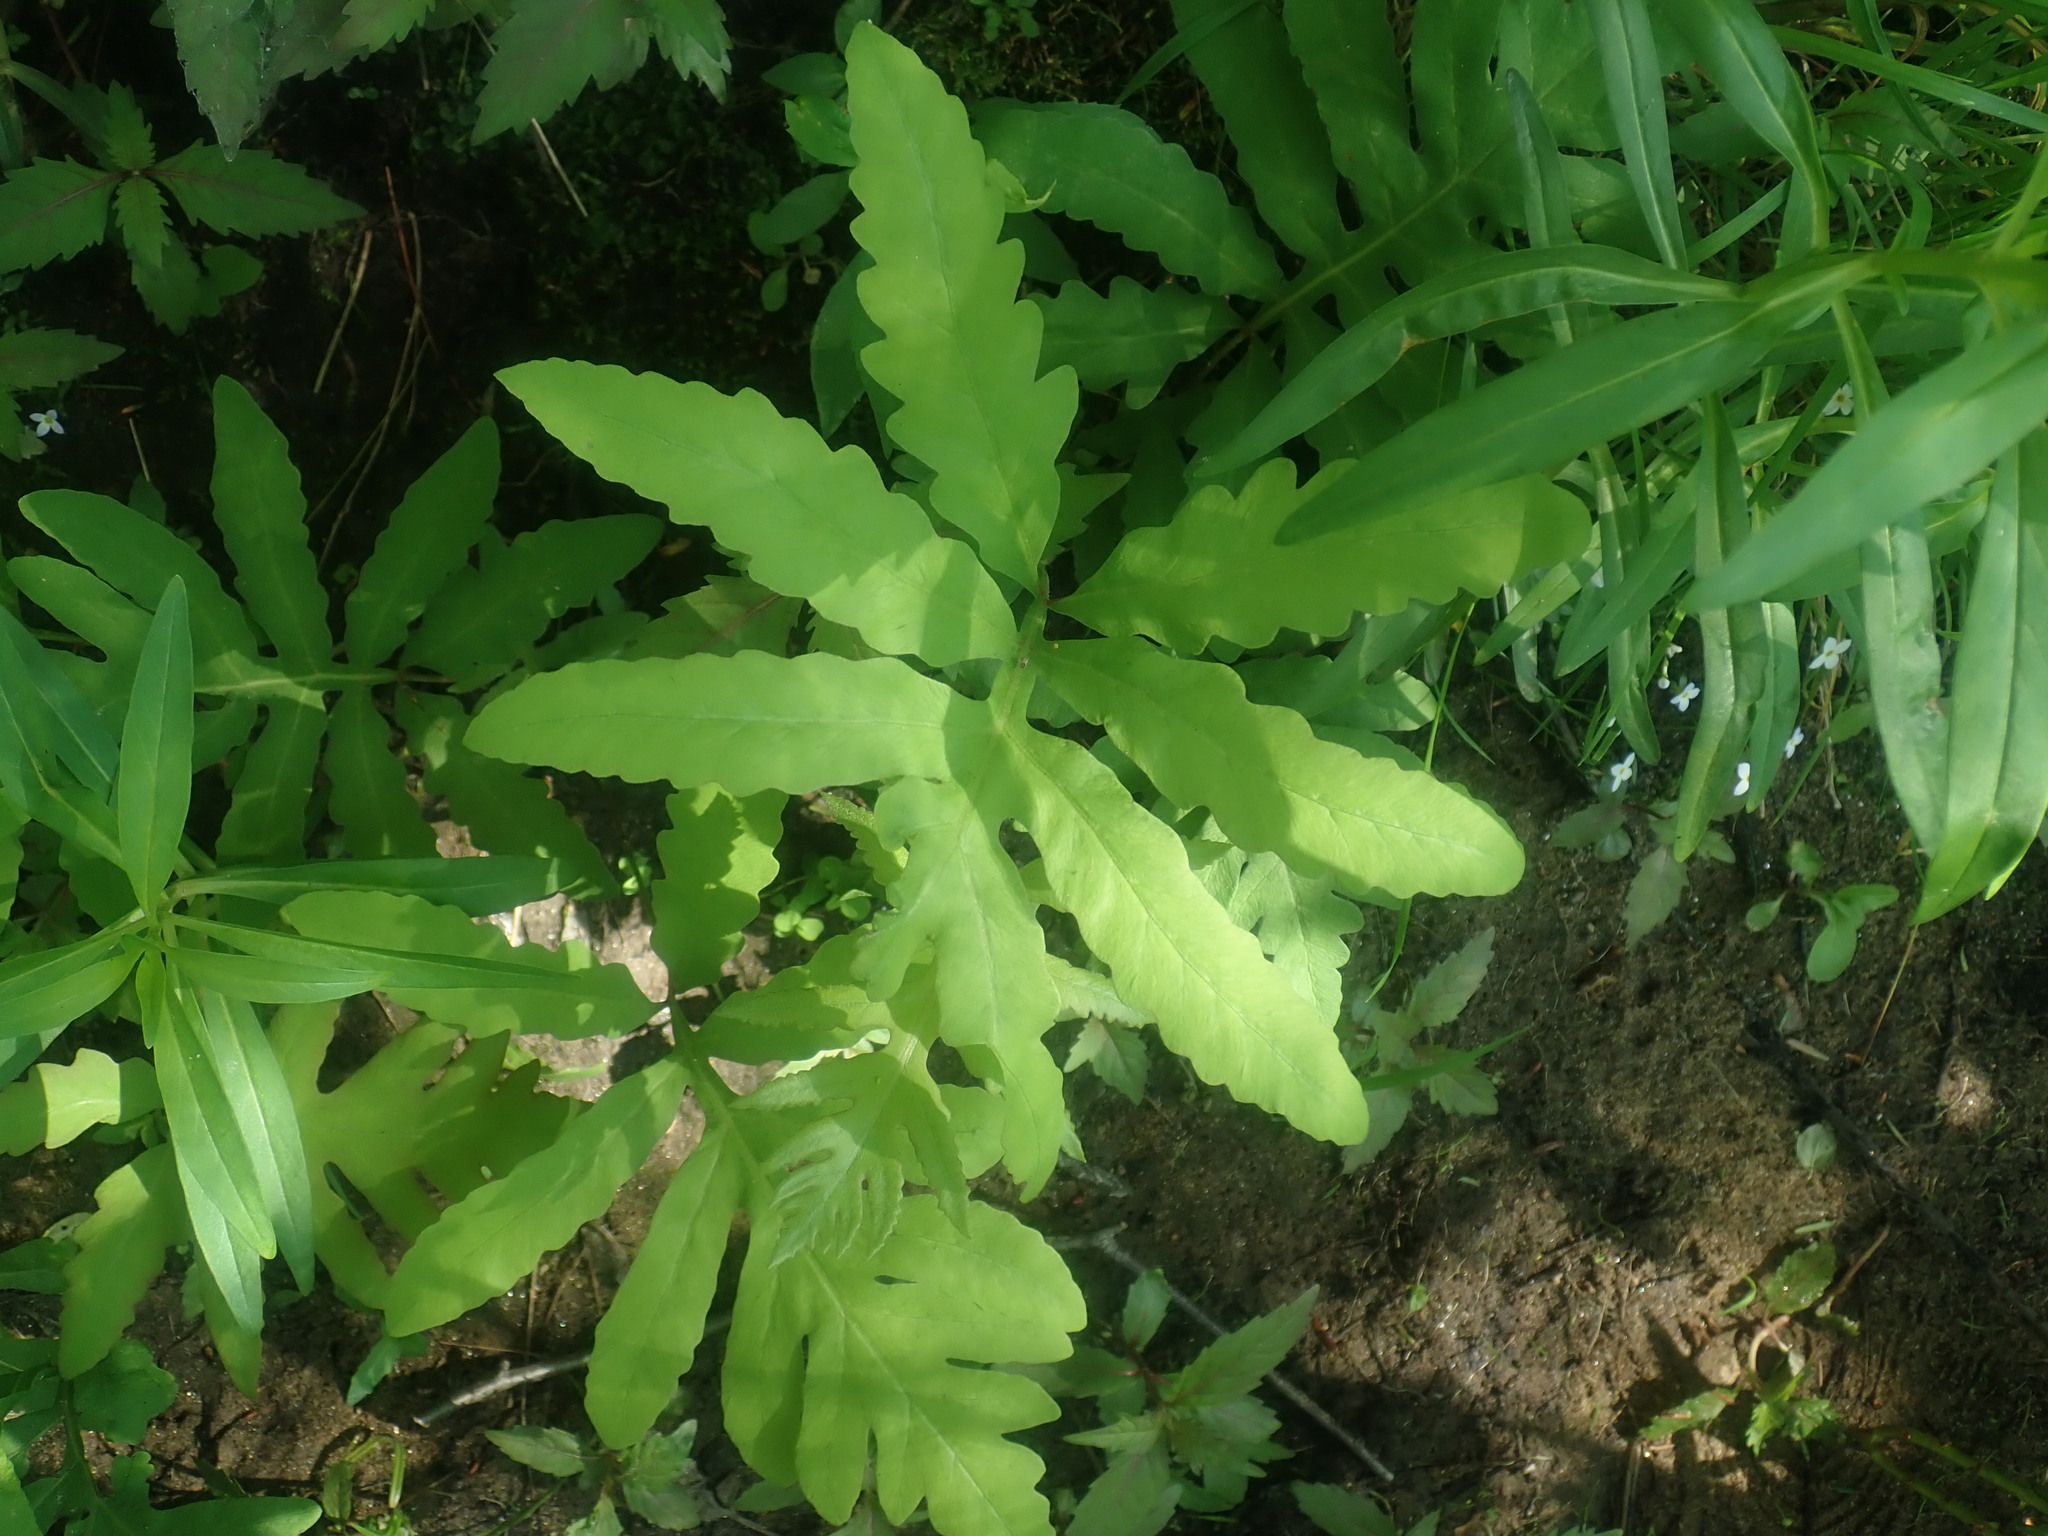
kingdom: Plantae
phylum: Tracheophyta
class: Polypodiopsida
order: Polypodiales
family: Onocleaceae
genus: Onoclea
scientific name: Onoclea sensibilis
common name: Sensitive fern
